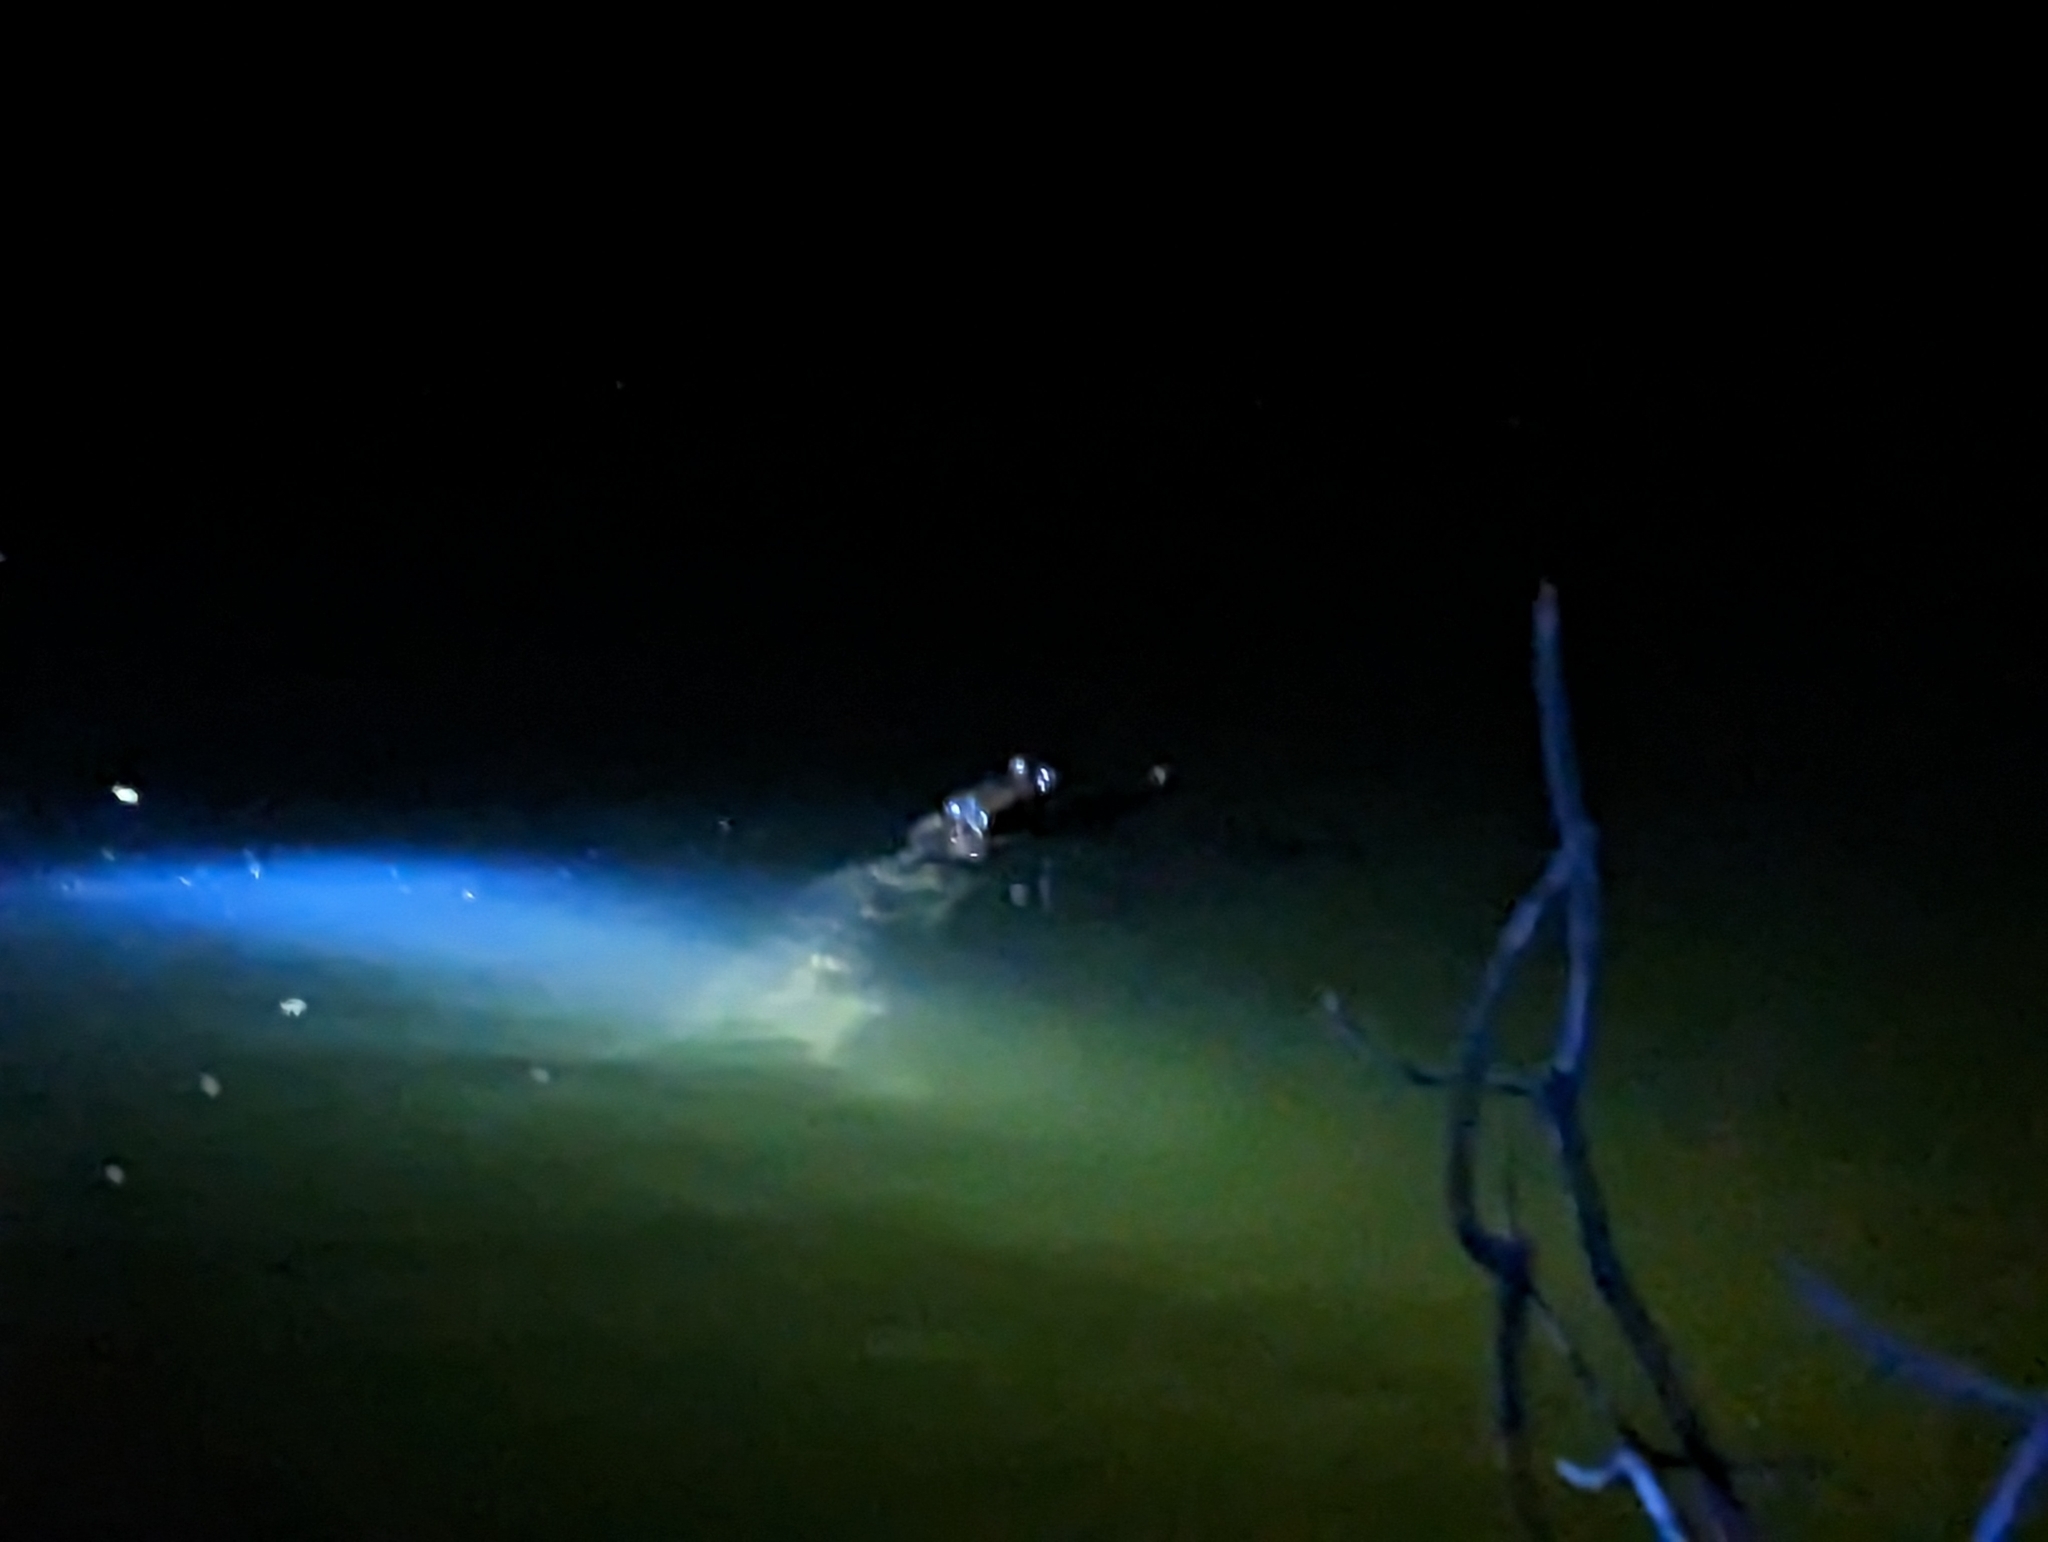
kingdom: Animalia
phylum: Chordata
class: Crocodylia
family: Alligatoridae
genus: Melanosuchus
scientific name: Melanosuchus niger
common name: Black caiman
